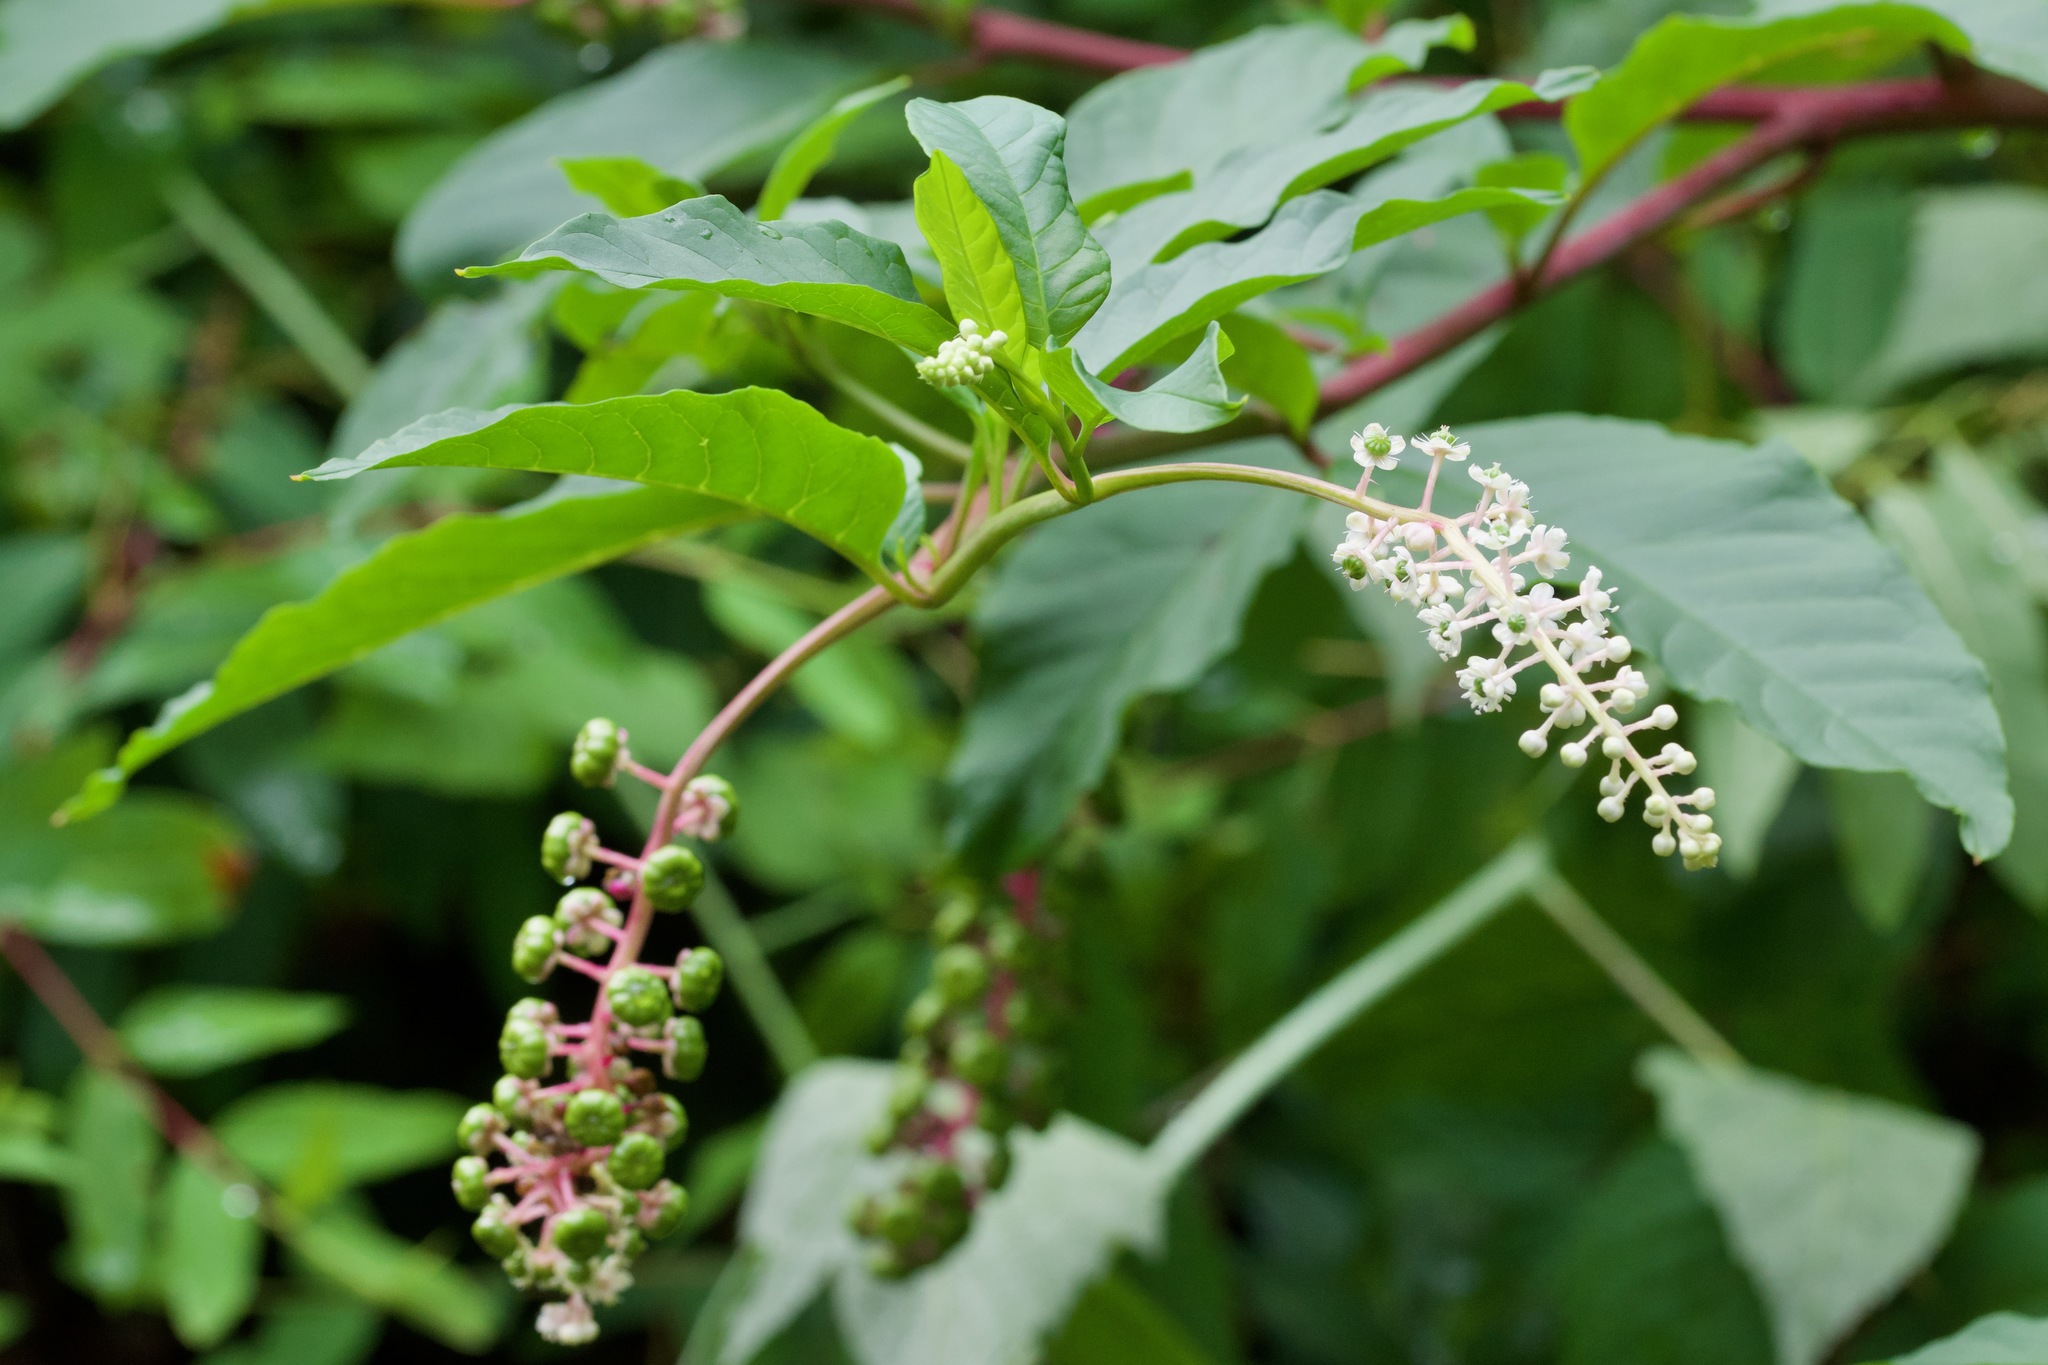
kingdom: Plantae
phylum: Tracheophyta
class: Magnoliopsida
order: Caryophyllales
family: Phytolaccaceae
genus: Phytolacca
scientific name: Phytolacca americana
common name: American pokeweed
